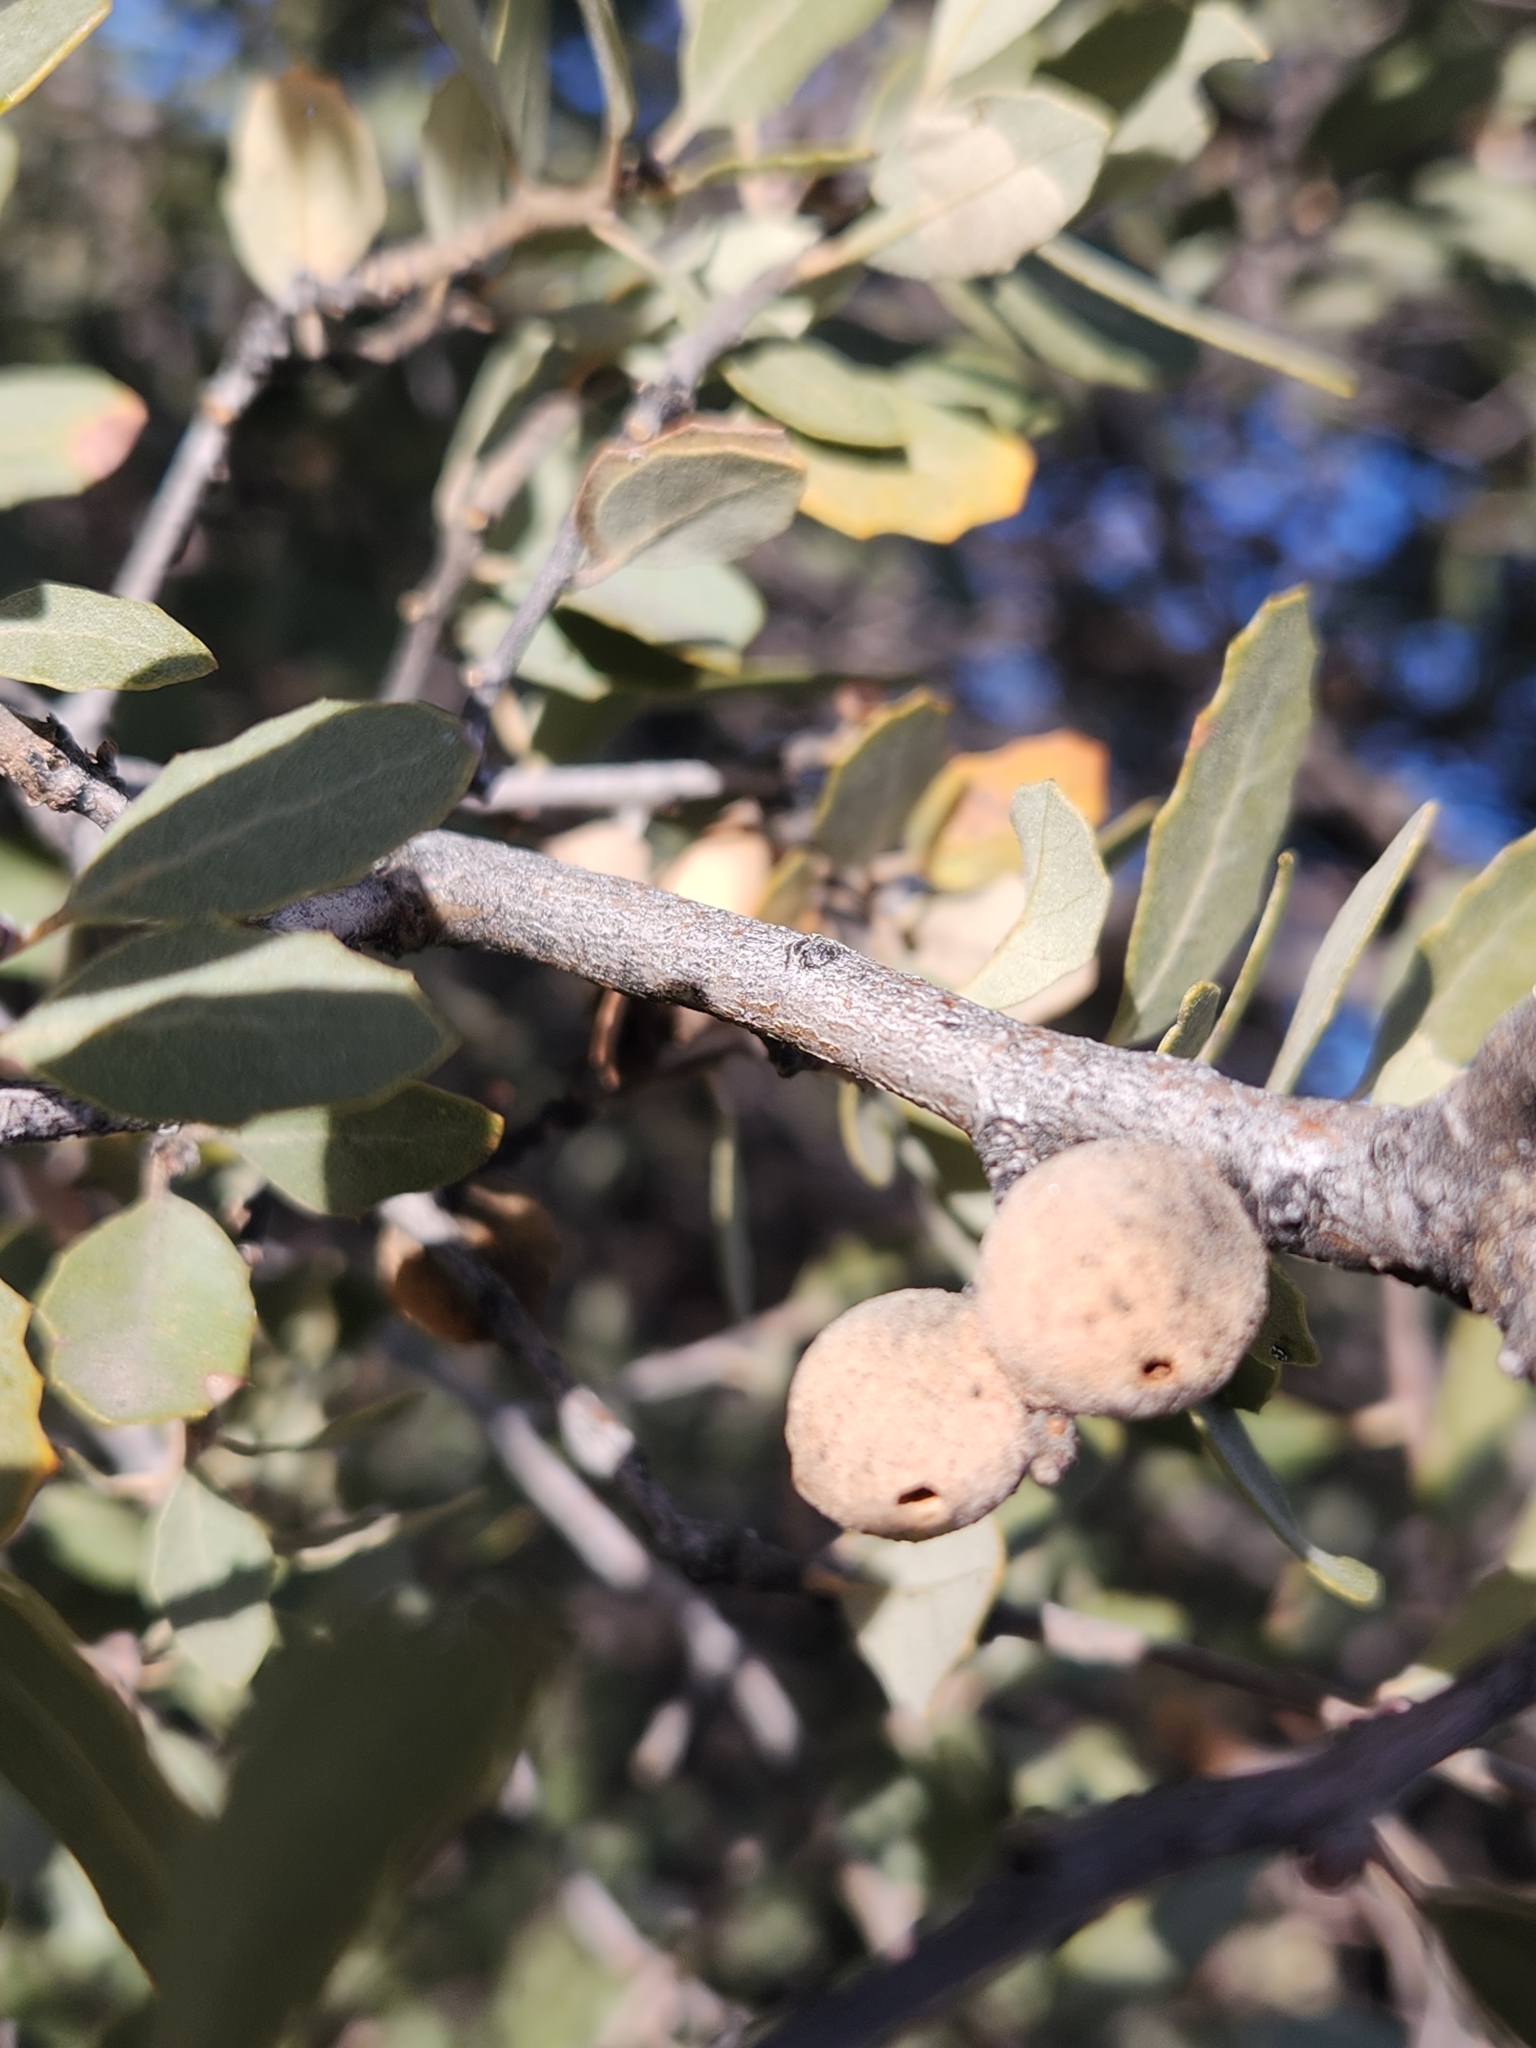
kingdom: Plantae
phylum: Tracheophyta
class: Magnoliopsida
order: Fagales
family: Fagaceae
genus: Quercus
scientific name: Quercus cornelius-mulleri
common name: Muller oak
